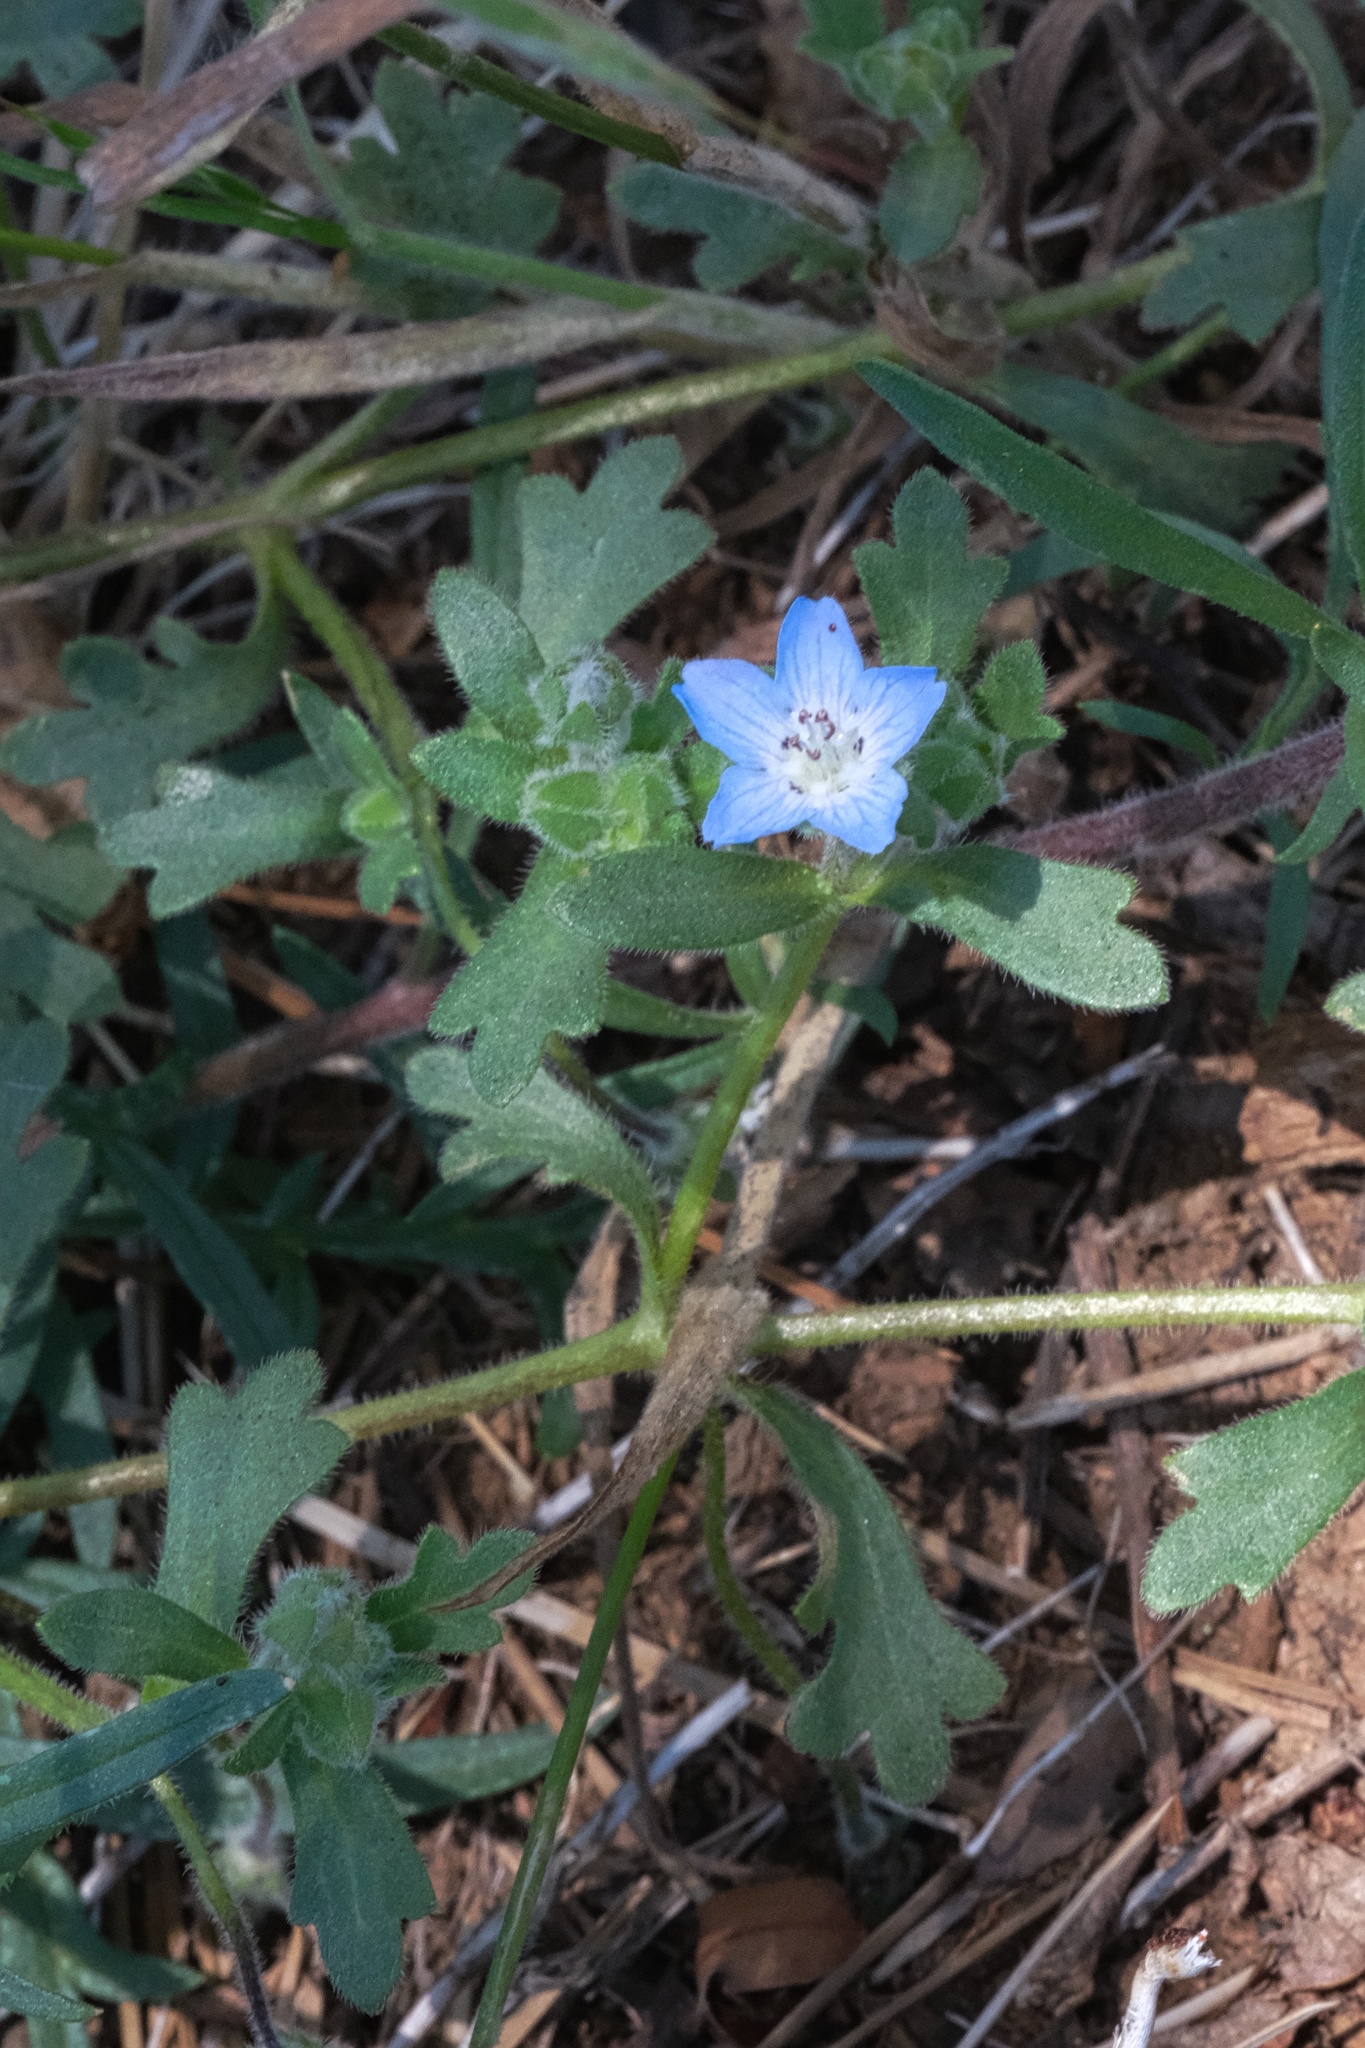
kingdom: Plantae
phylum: Tracheophyta
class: Magnoliopsida
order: Boraginales
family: Hydrophyllaceae
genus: Nemophila
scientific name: Nemophila menziesii
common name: Baby's-blue-eyes
